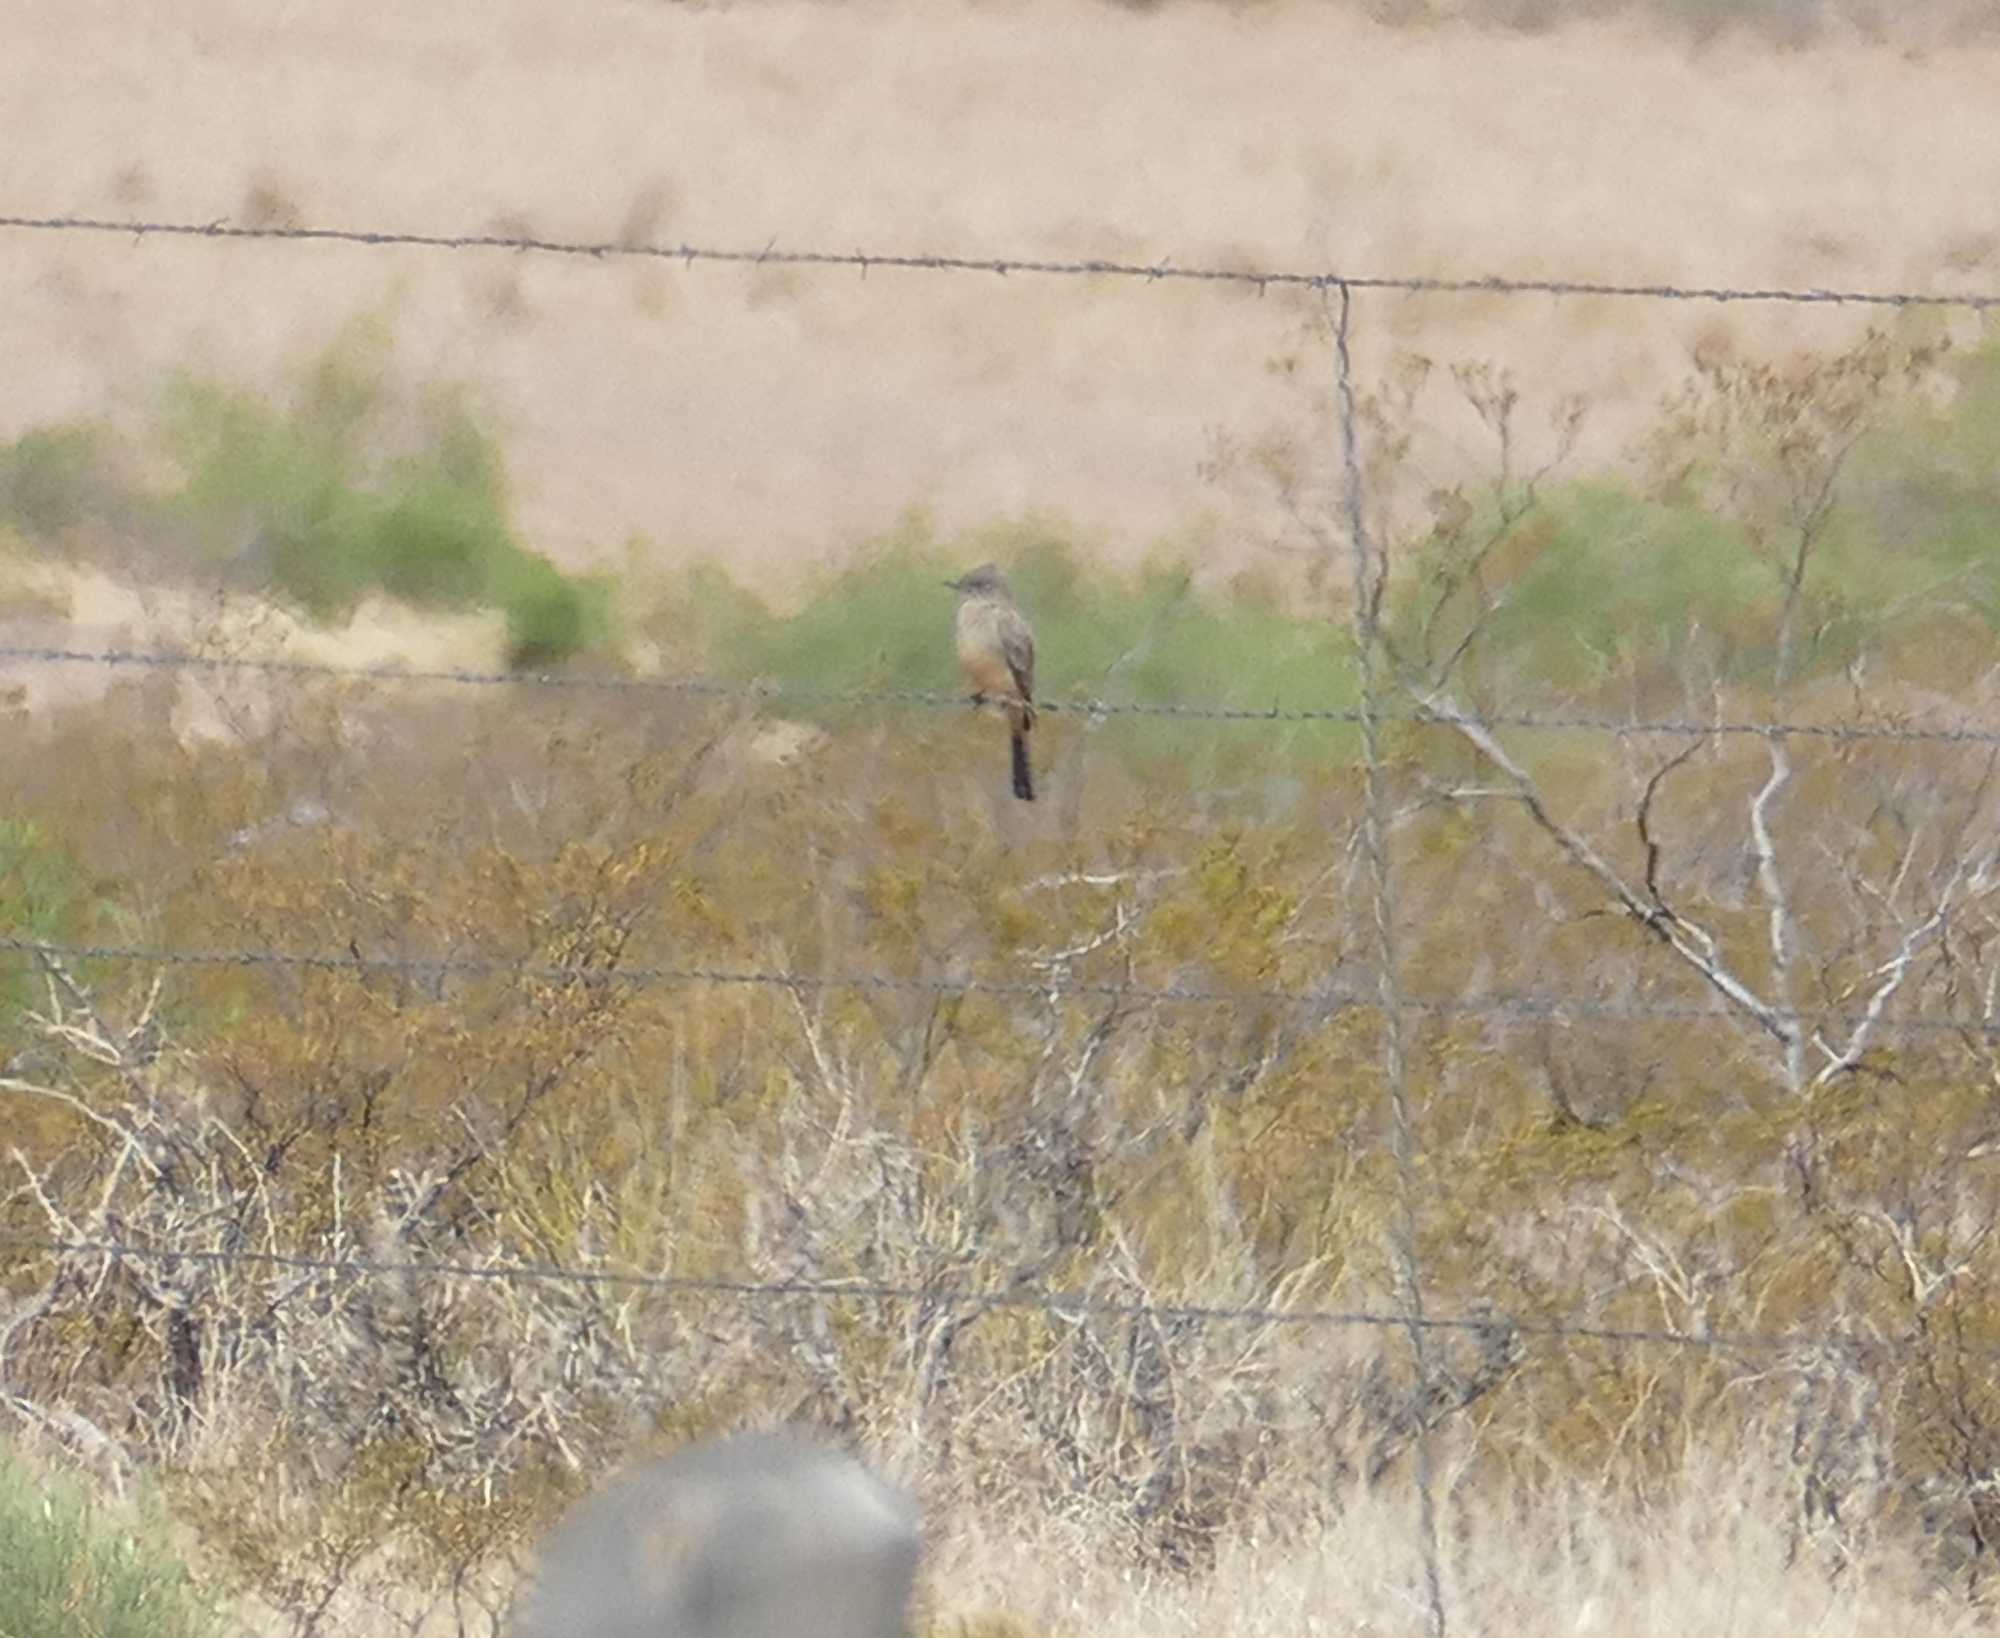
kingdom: Animalia
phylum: Chordata
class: Aves
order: Passeriformes
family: Tyrannidae
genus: Sayornis
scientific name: Sayornis saya
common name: Say's phoebe
